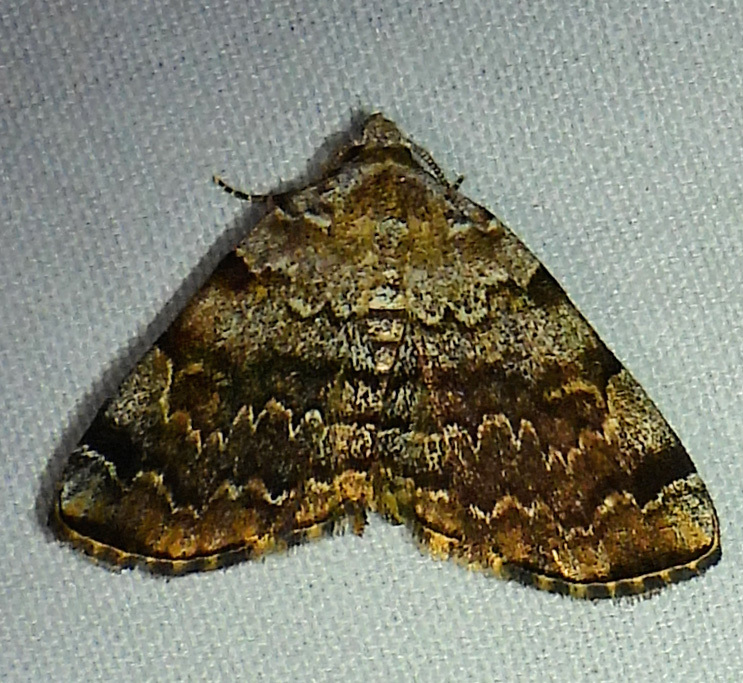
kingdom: Animalia
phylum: Arthropoda
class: Insecta
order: Lepidoptera
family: Erebidae
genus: Idia
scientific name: Idia americalis
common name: American idia moth
